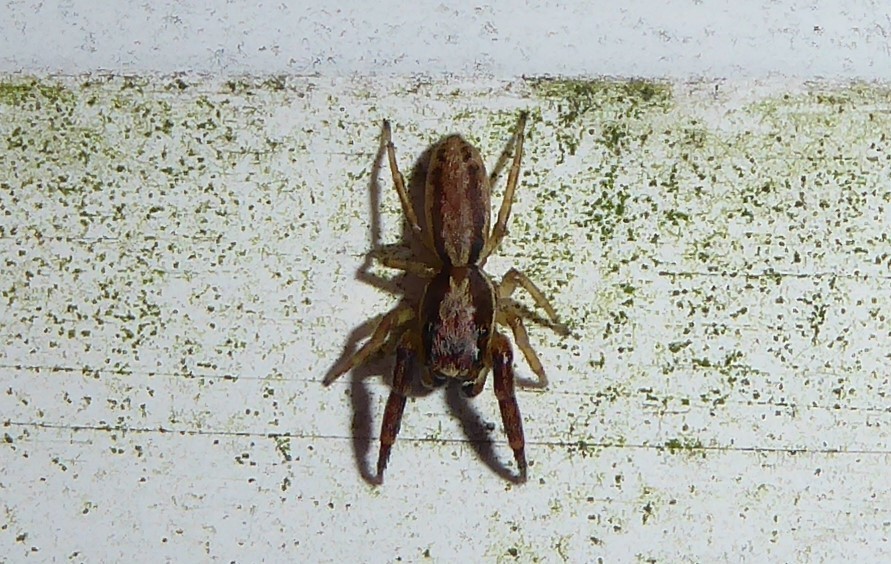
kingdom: Animalia
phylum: Arthropoda
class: Arachnida
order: Araneae
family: Salticidae
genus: Trite
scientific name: Trite mustilina
